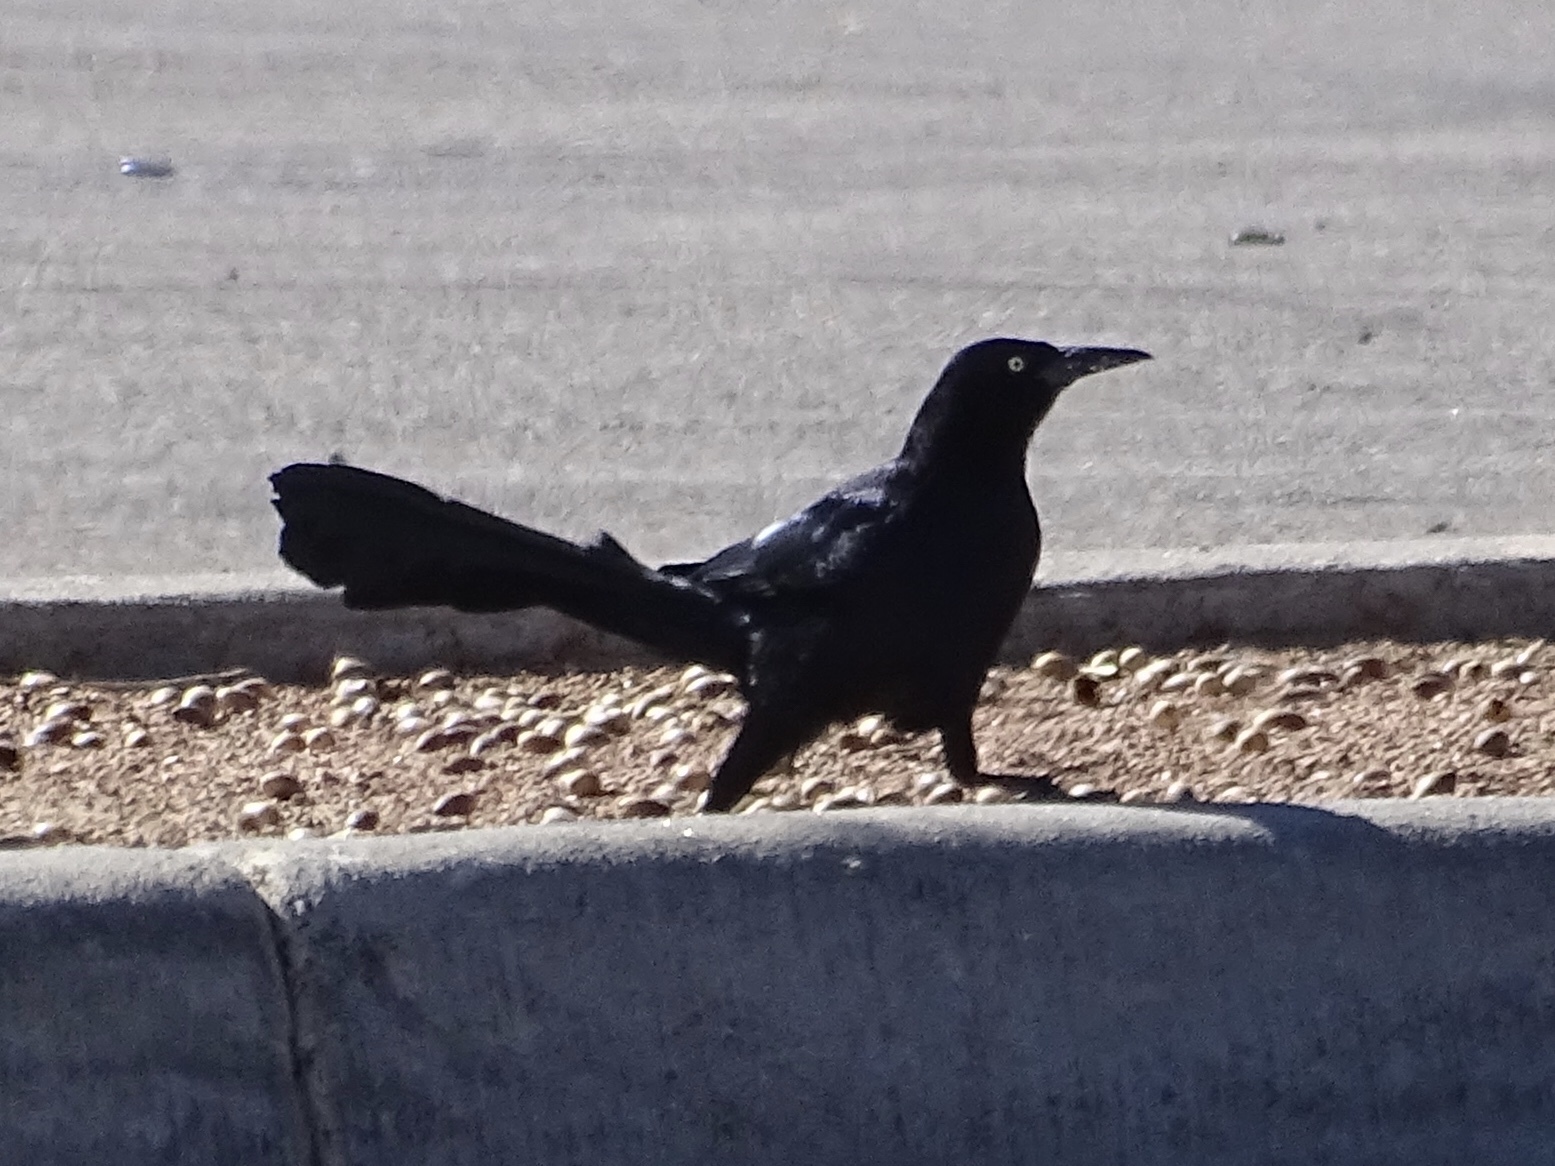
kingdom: Animalia
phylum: Chordata
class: Aves
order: Passeriformes
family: Icteridae
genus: Quiscalus
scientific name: Quiscalus mexicanus
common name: Great-tailed grackle
